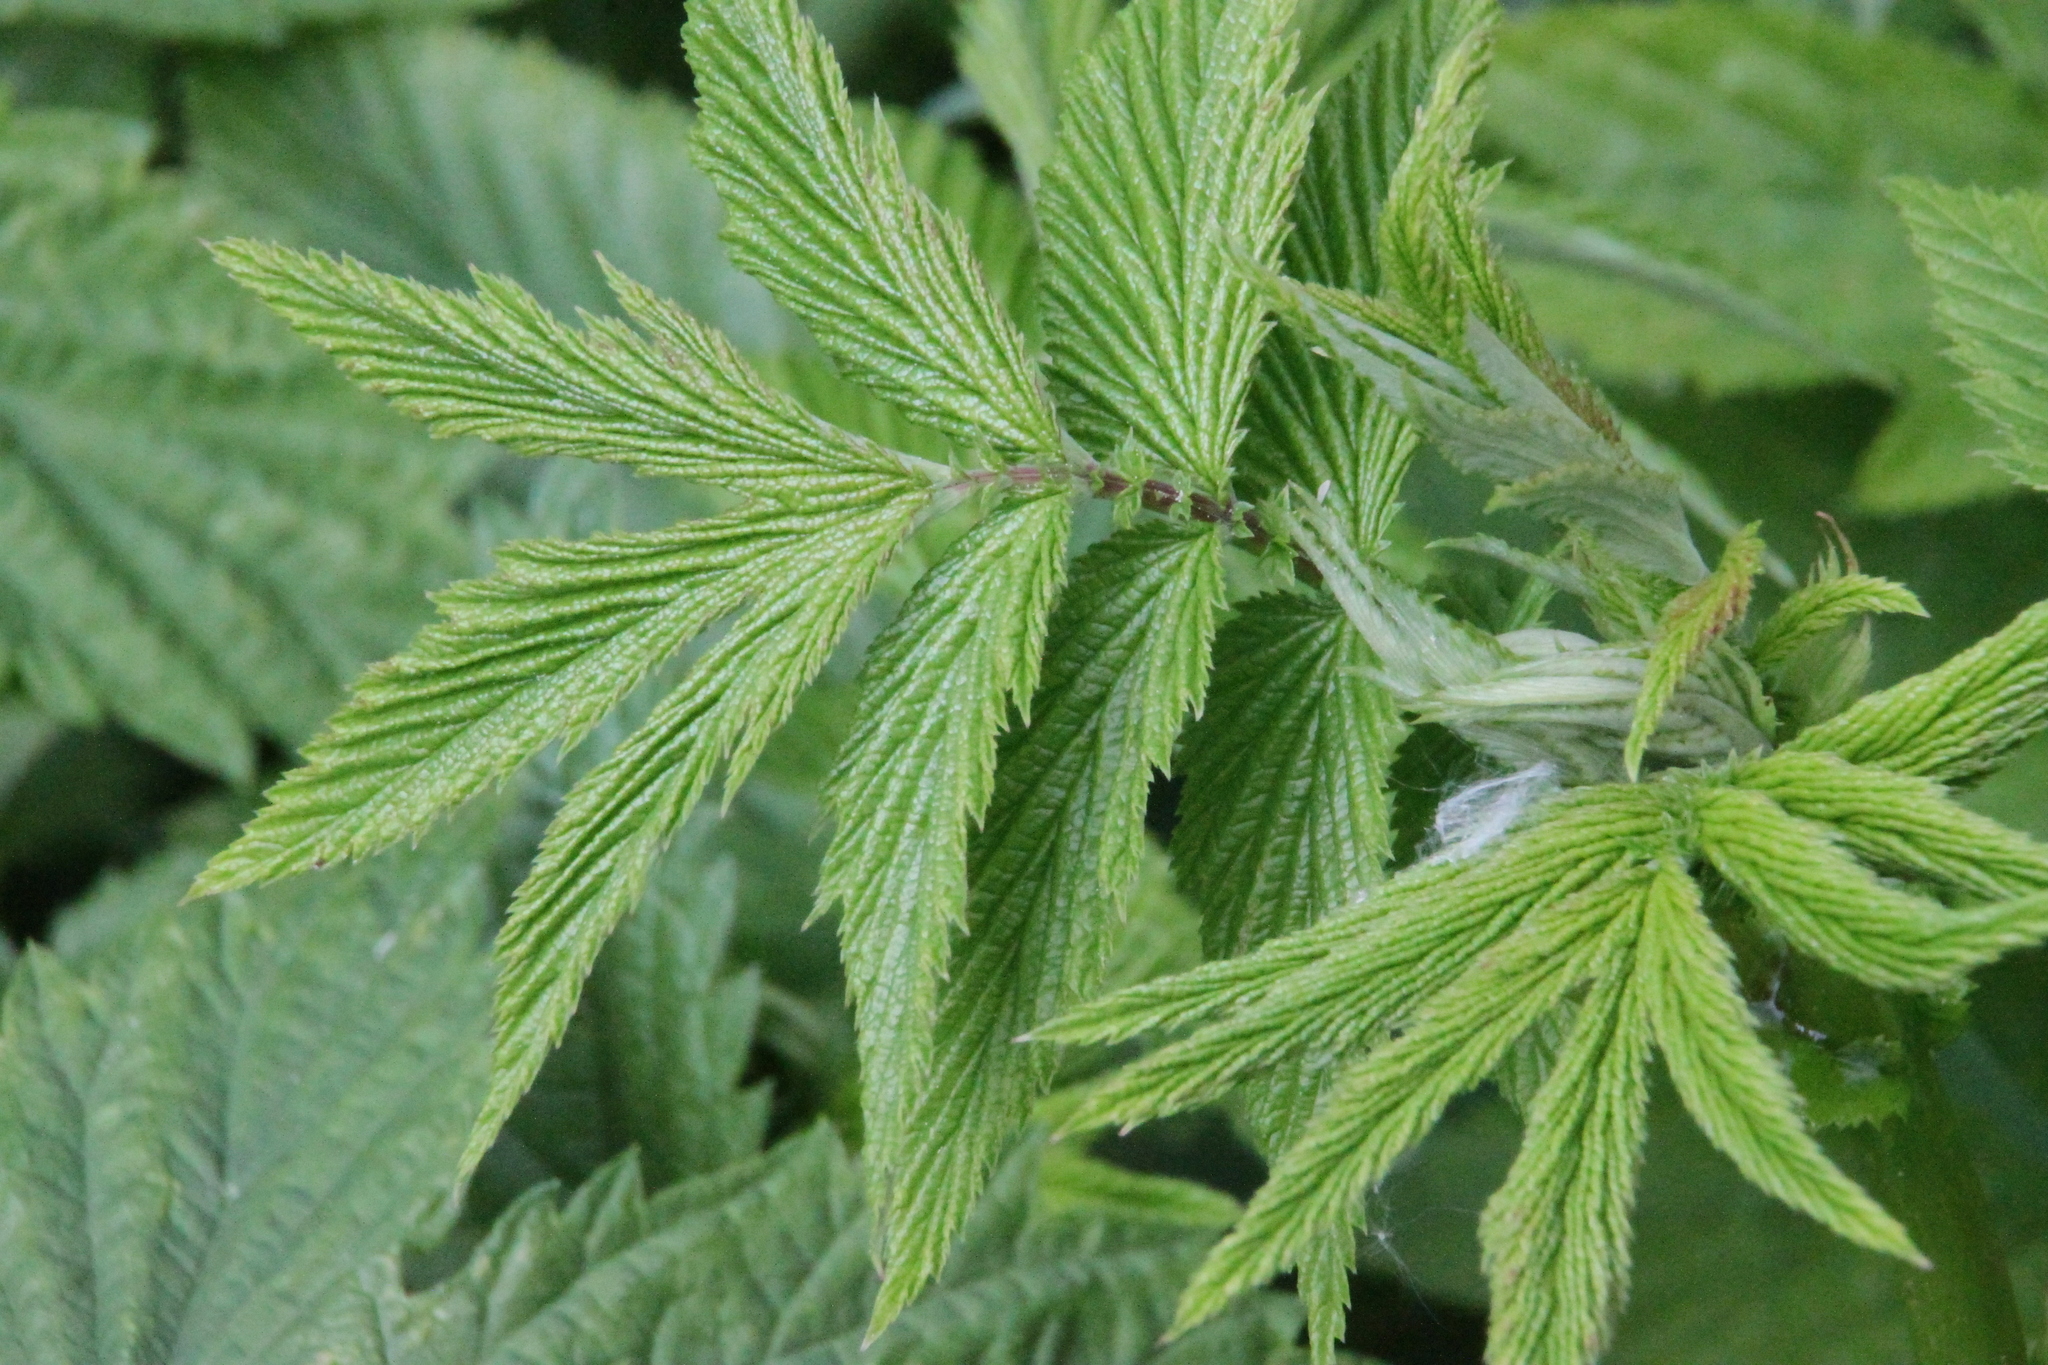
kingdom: Plantae
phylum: Tracheophyta
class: Magnoliopsida
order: Rosales
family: Rosaceae
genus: Filipendula
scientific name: Filipendula ulmaria
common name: Meadowsweet
